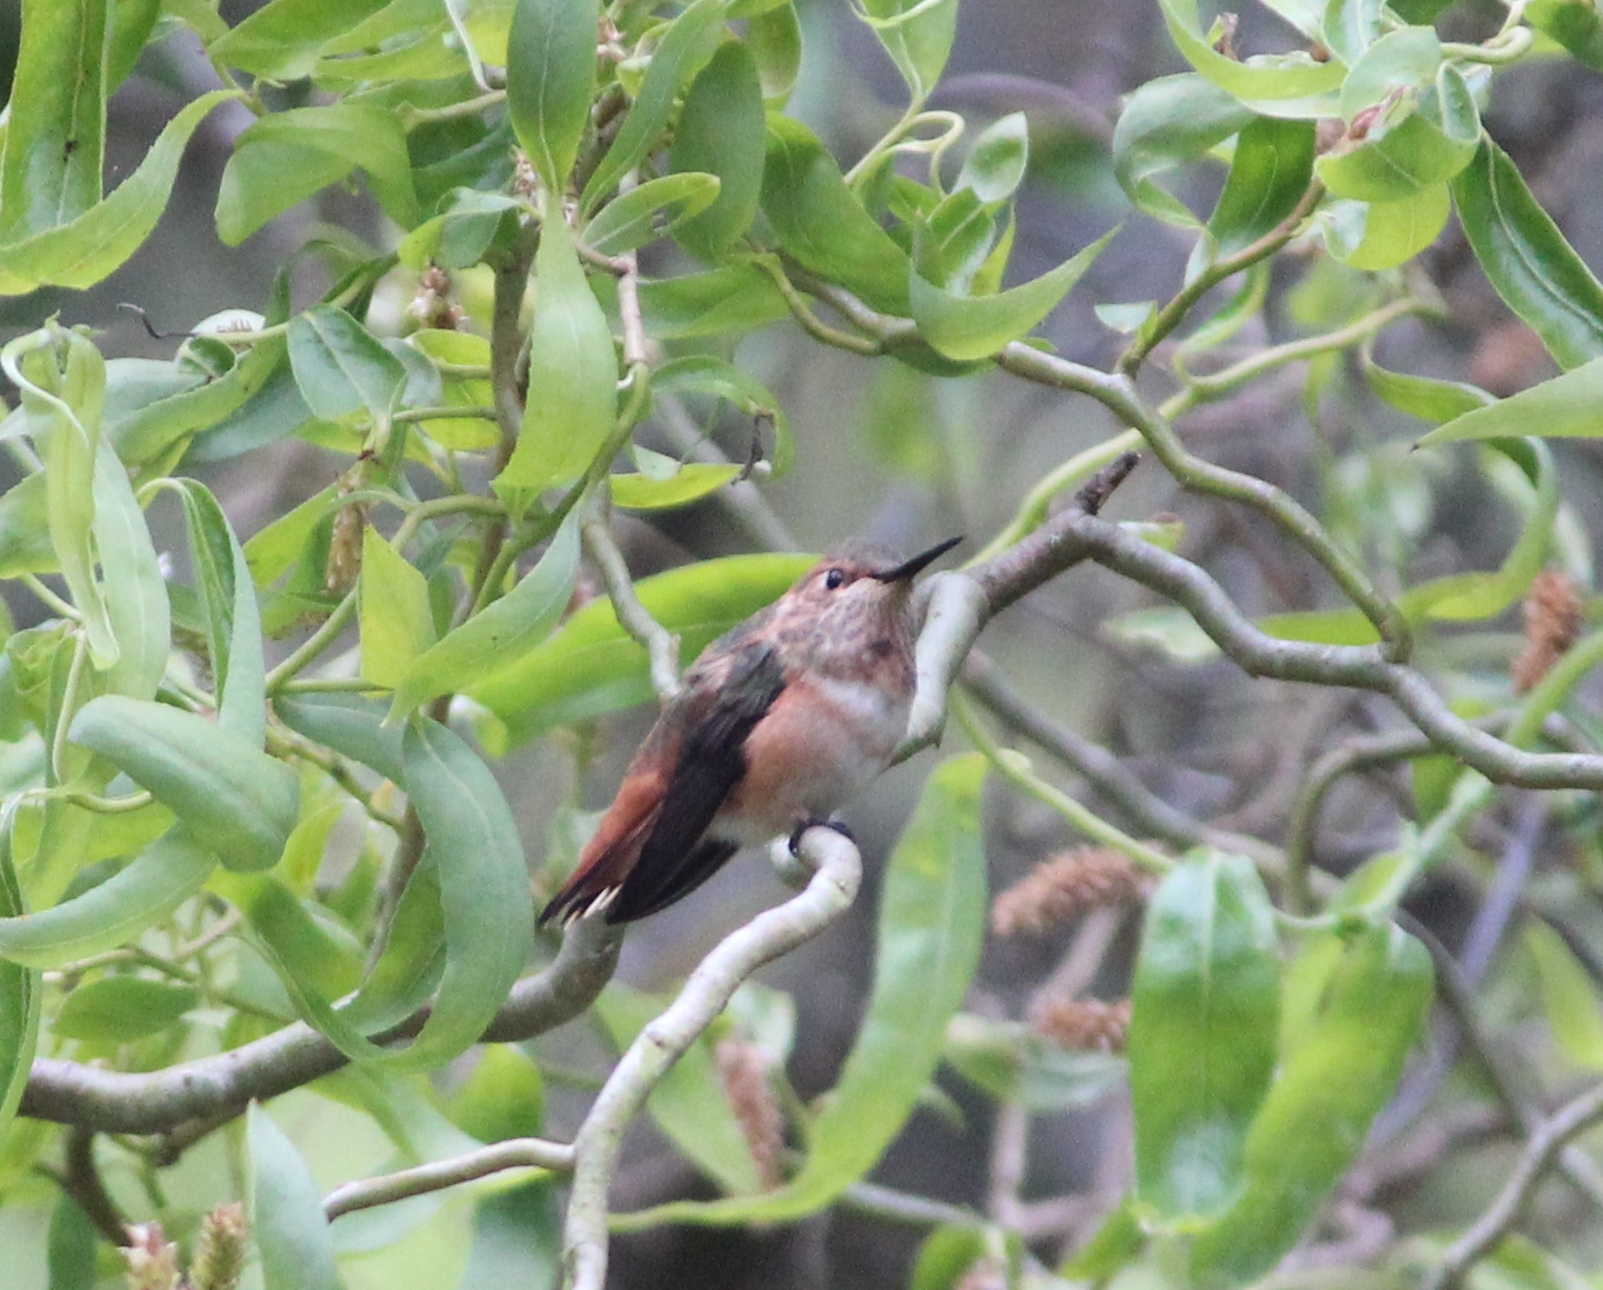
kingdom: Animalia
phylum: Chordata
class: Aves
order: Apodiformes
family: Trochilidae
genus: Selasphorus
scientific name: Selasphorus sasin
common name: Allen's hummingbird
